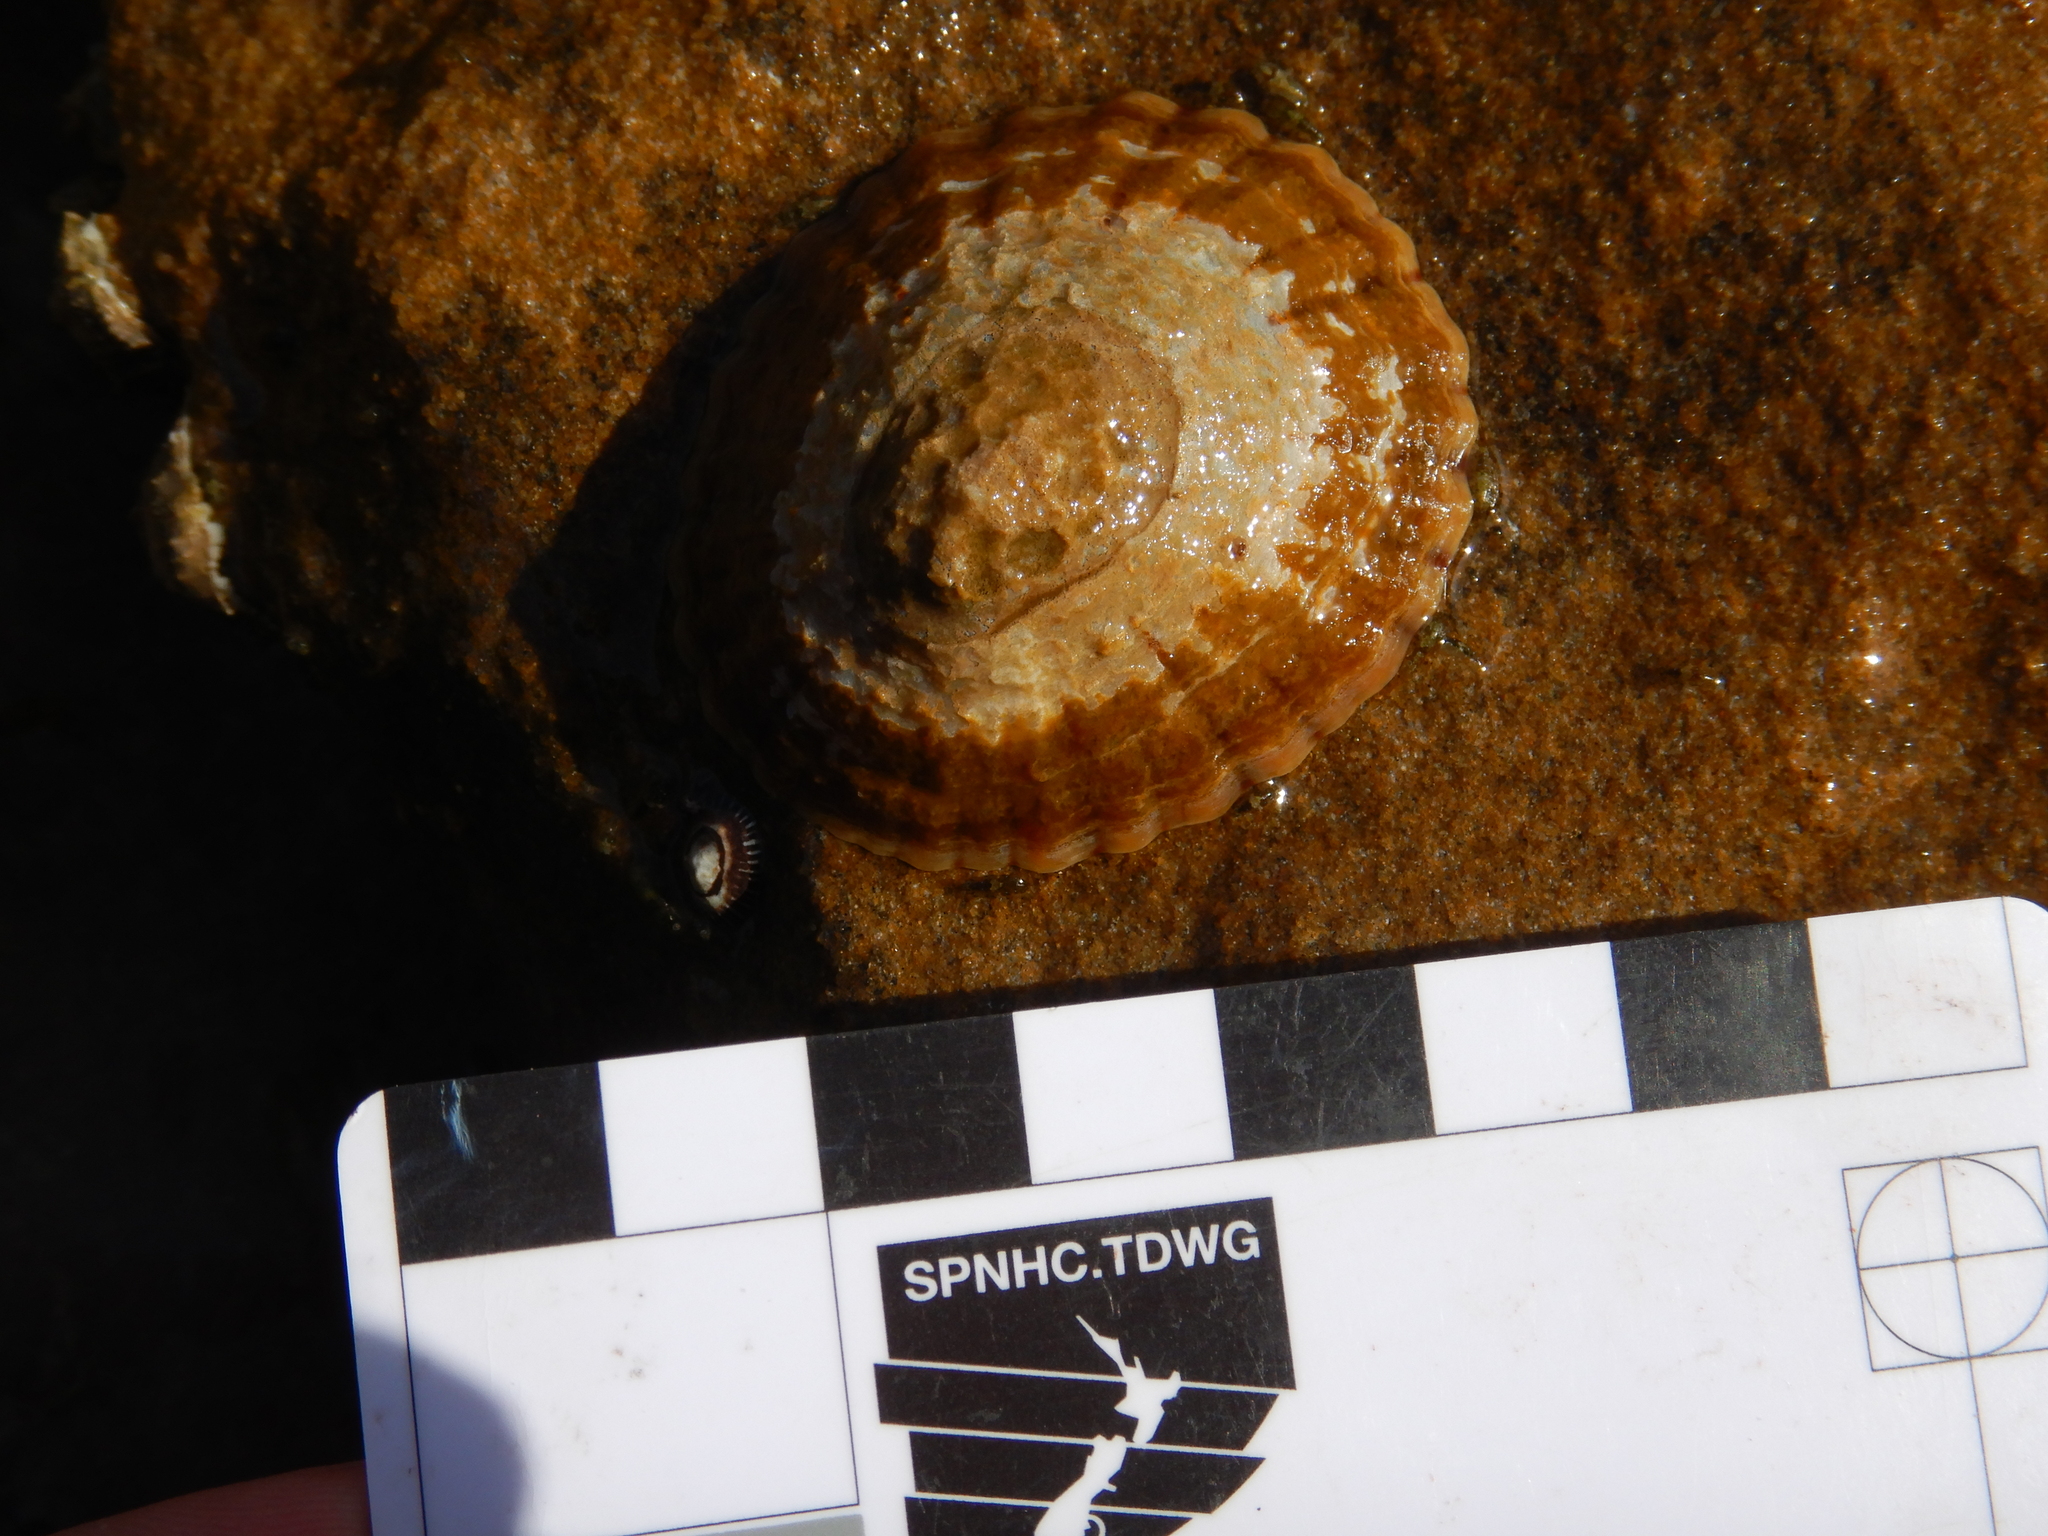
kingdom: Animalia
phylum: Mollusca
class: Gastropoda
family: Nacellidae
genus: Cellana
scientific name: Cellana solida
